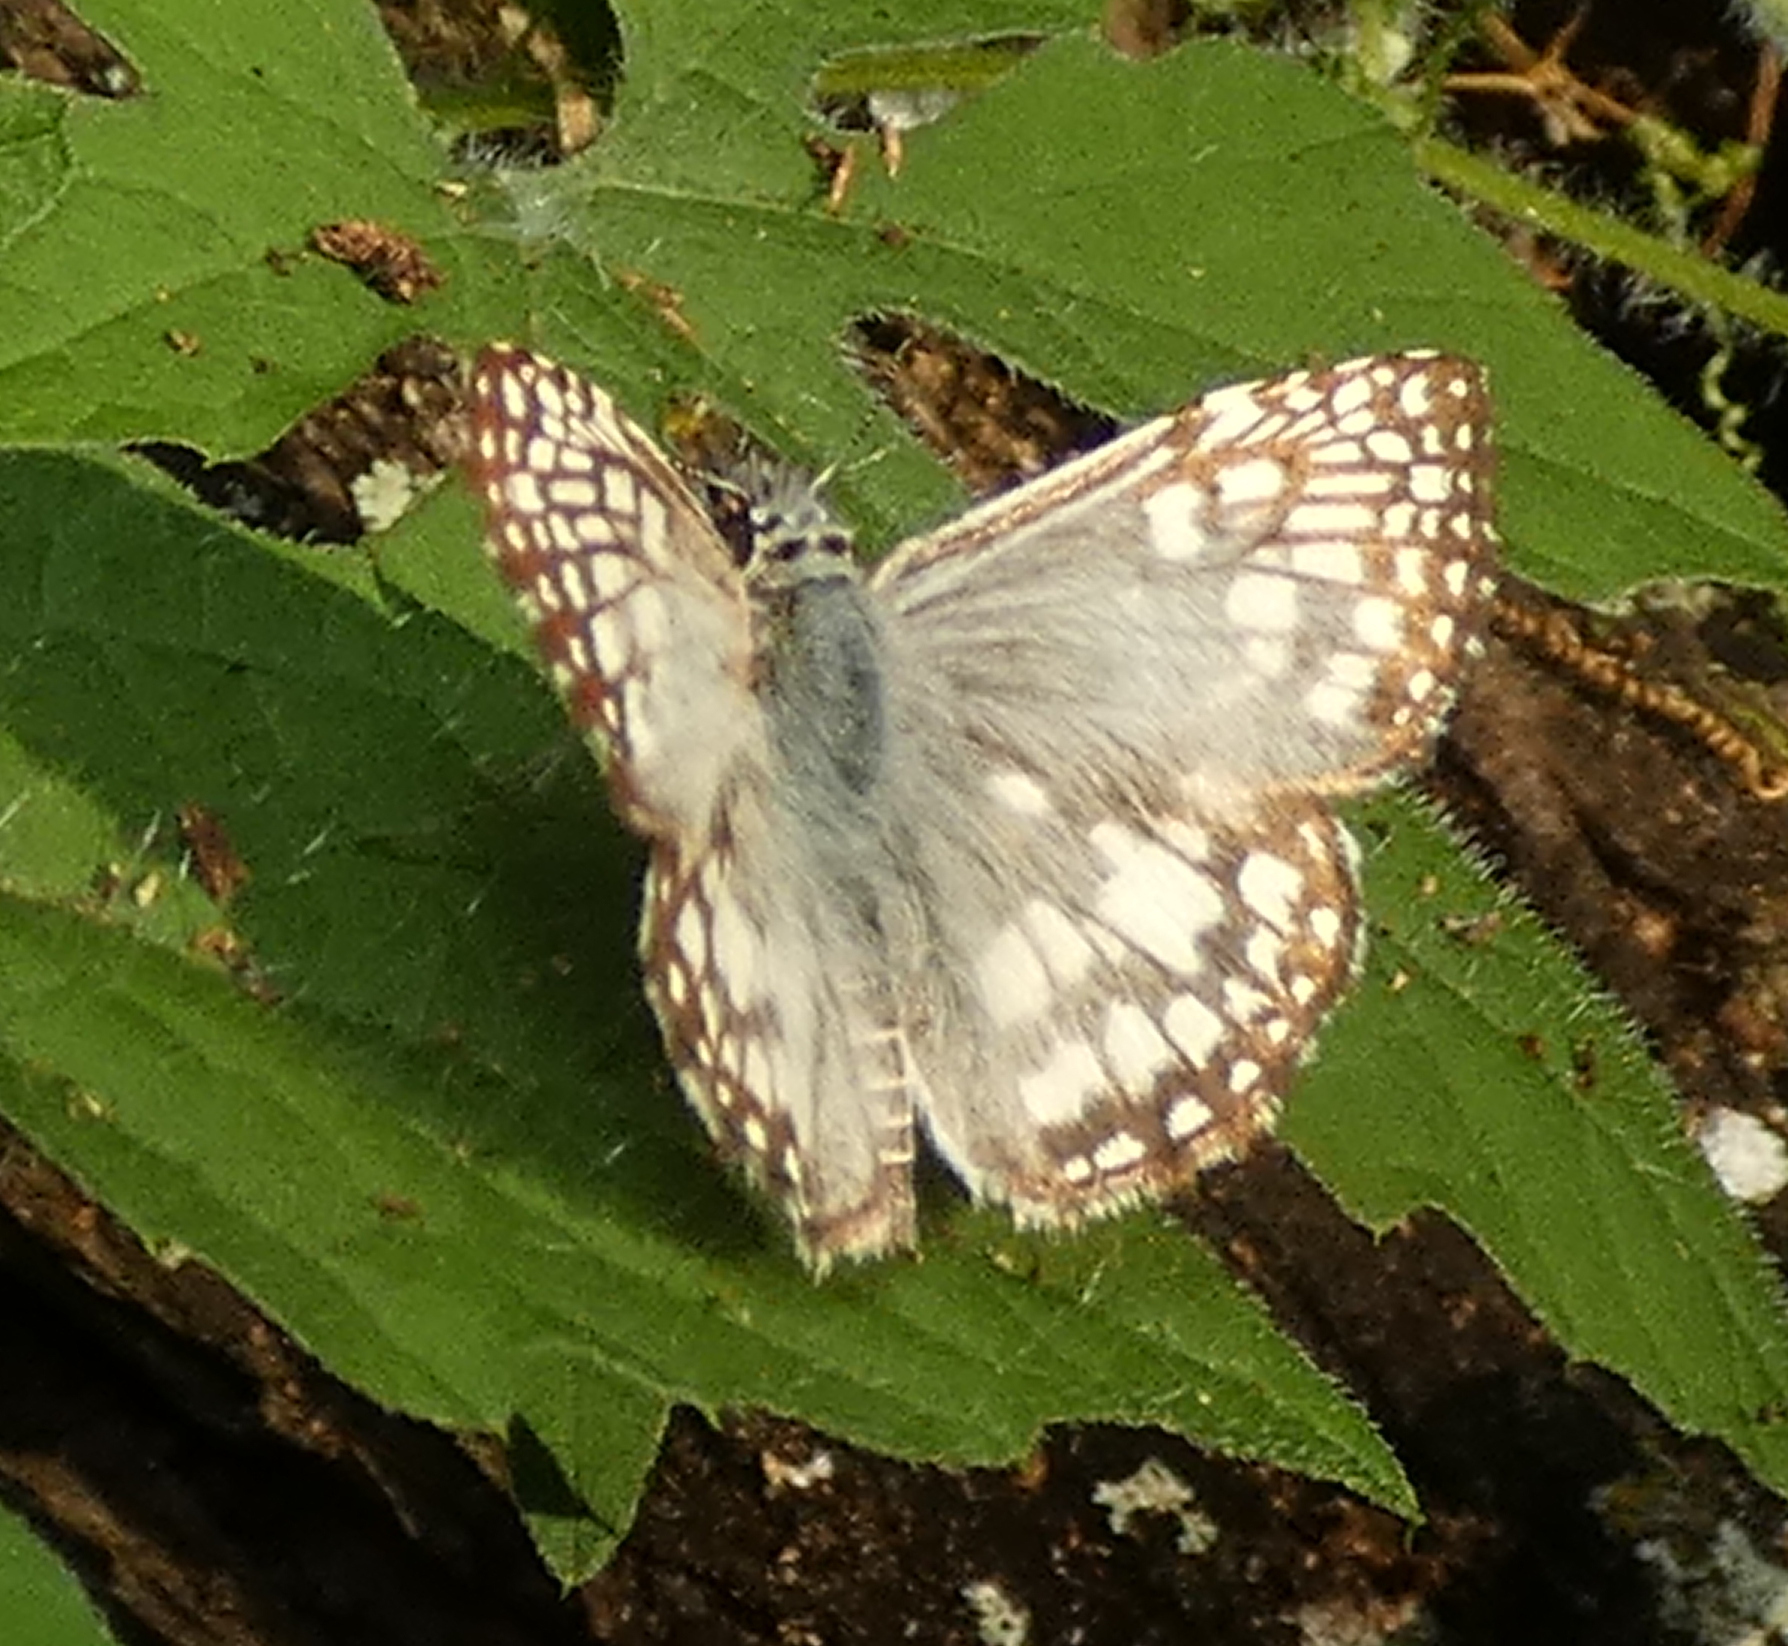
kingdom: Animalia
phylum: Arthropoda
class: Insecta
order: Lepidoptera
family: Hesperiidae
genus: Pyrgus
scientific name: Pyrgus oileus
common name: Tropical checkered-skipper
